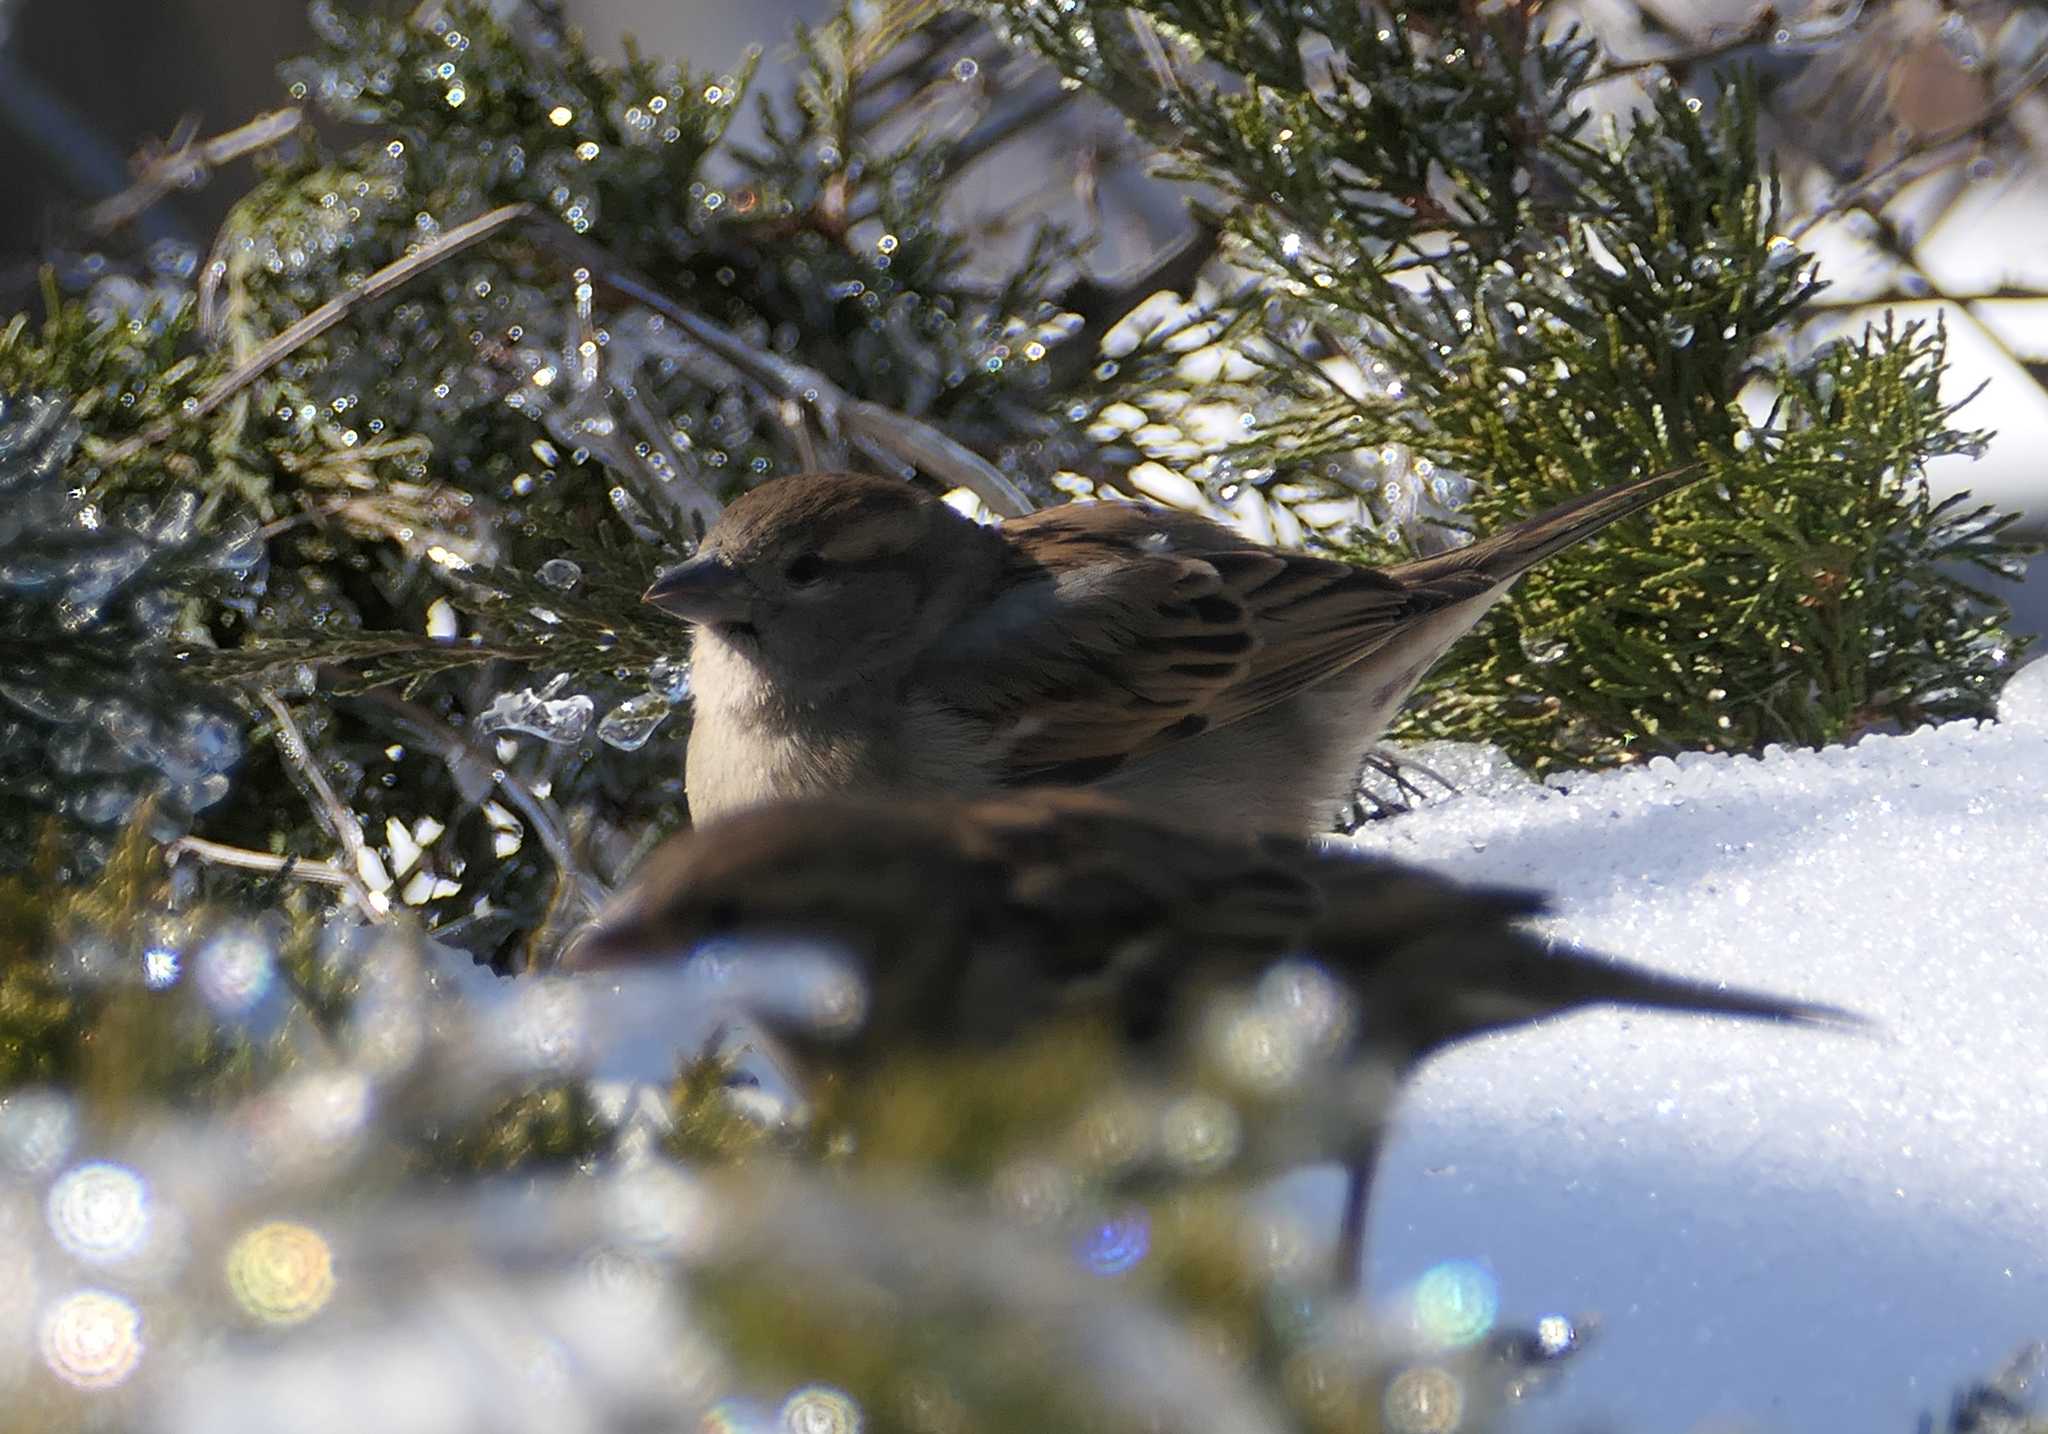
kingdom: Animalia
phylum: Chordata
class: Aves
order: Passeriformes
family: Passeridae
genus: Passer
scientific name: Passer domesticus
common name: House sparrow
